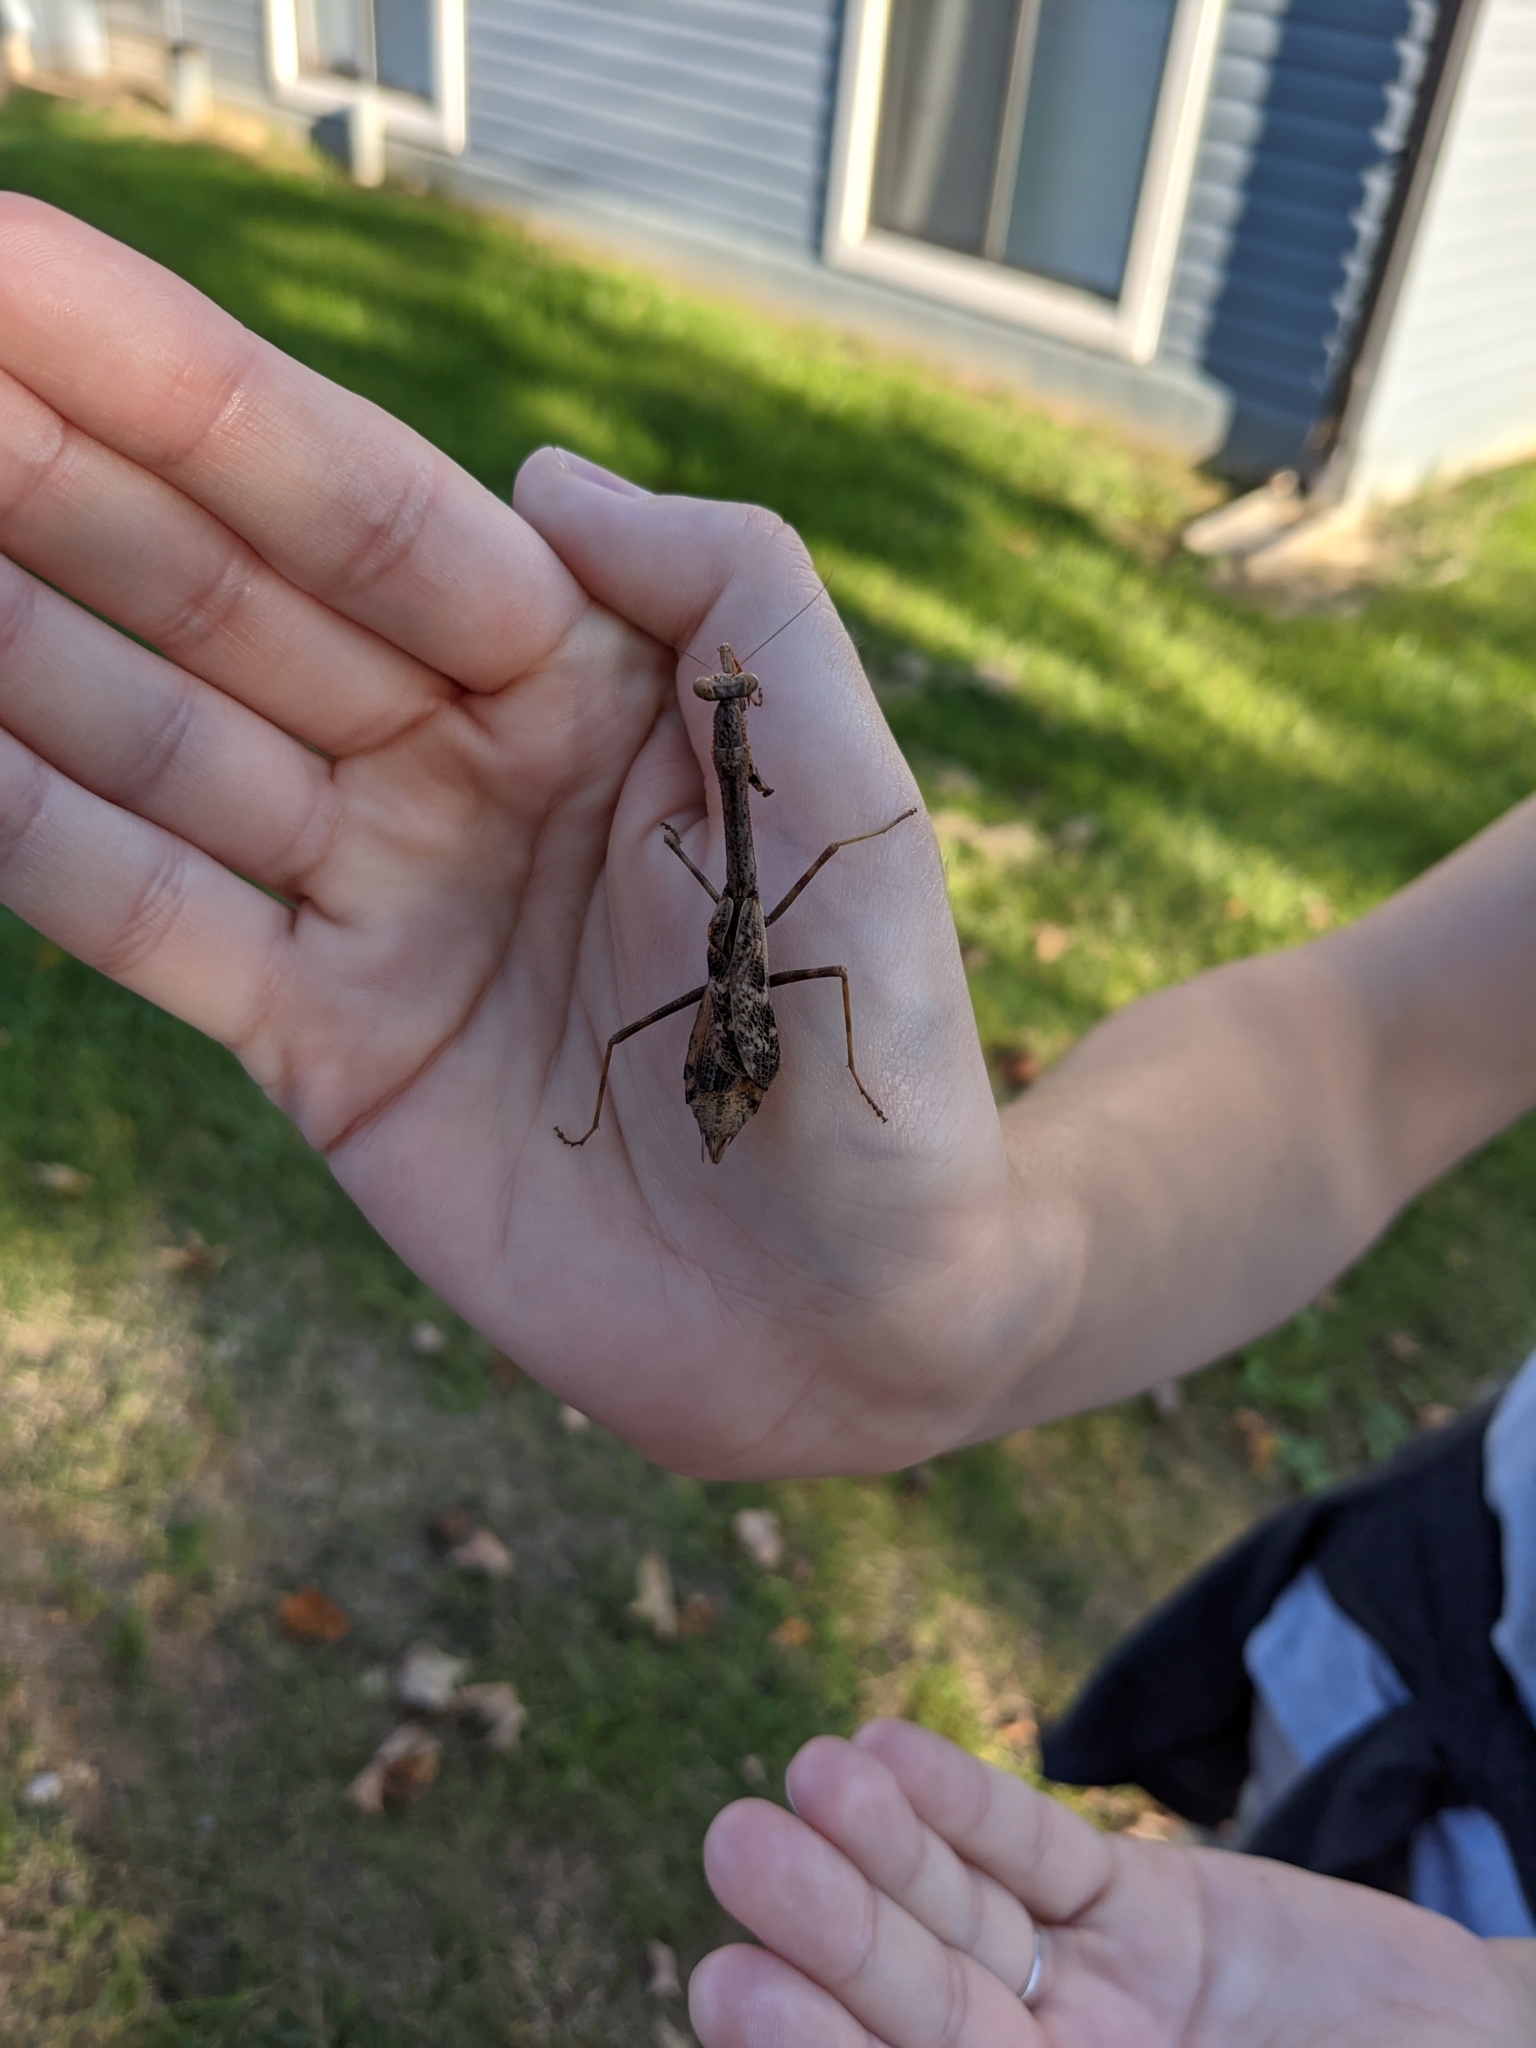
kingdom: Animalia
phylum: Arthropoda
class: Insecta
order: Mantodea
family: Mantidae
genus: Stagmomantis
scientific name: Stagmomantis carolina
